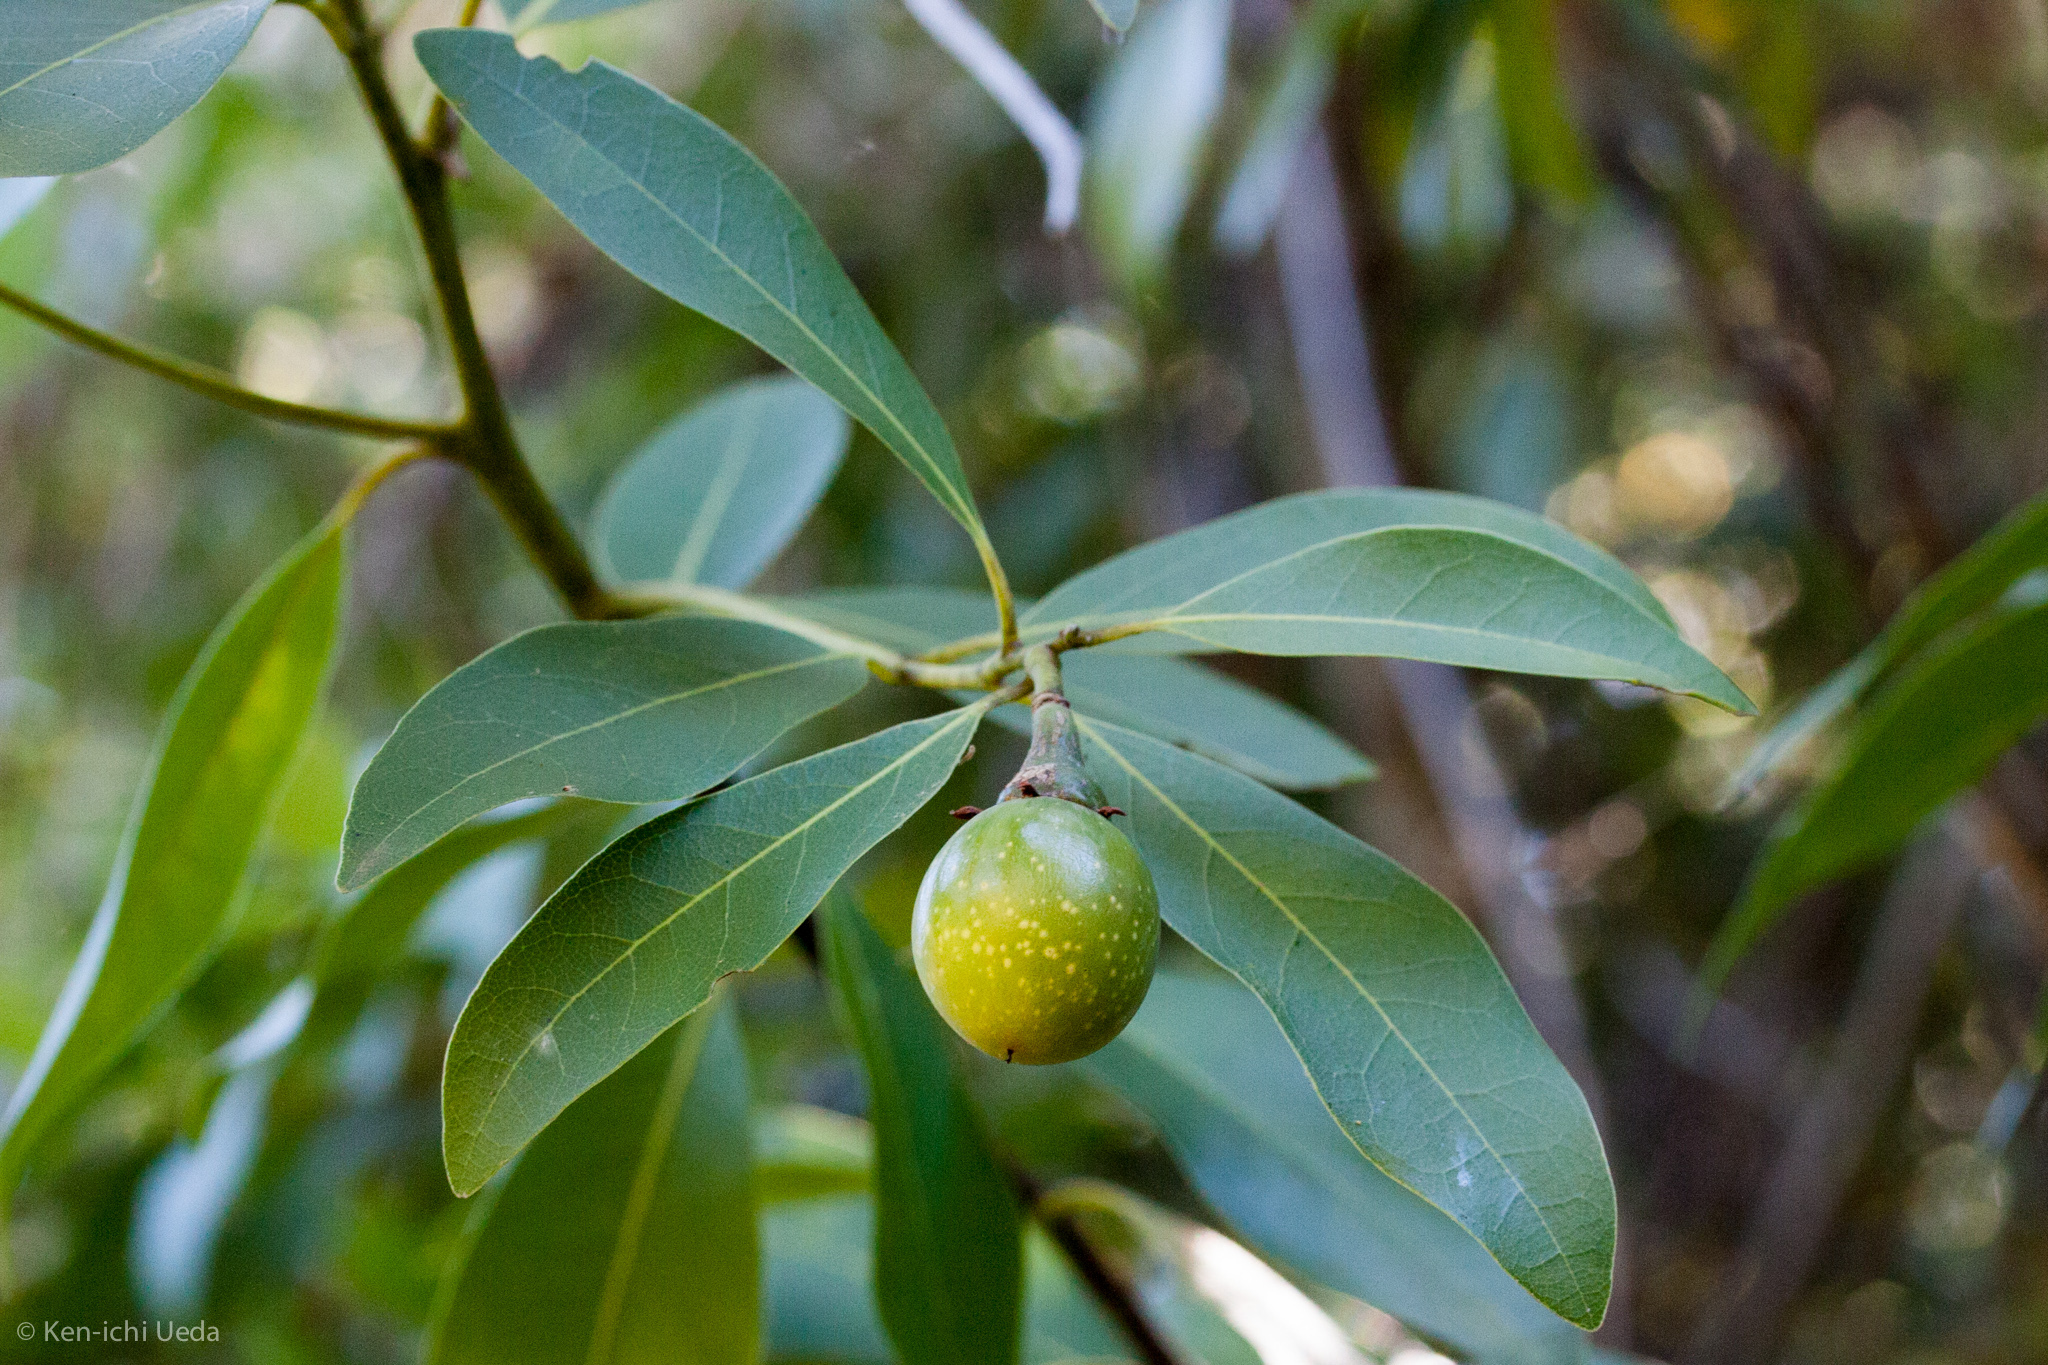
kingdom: Plantae
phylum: Tracheophyta
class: Magnoliopsida
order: Laurales
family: Lauraceae
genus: Umbellularia
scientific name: Umbellularia californica
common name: California bay
